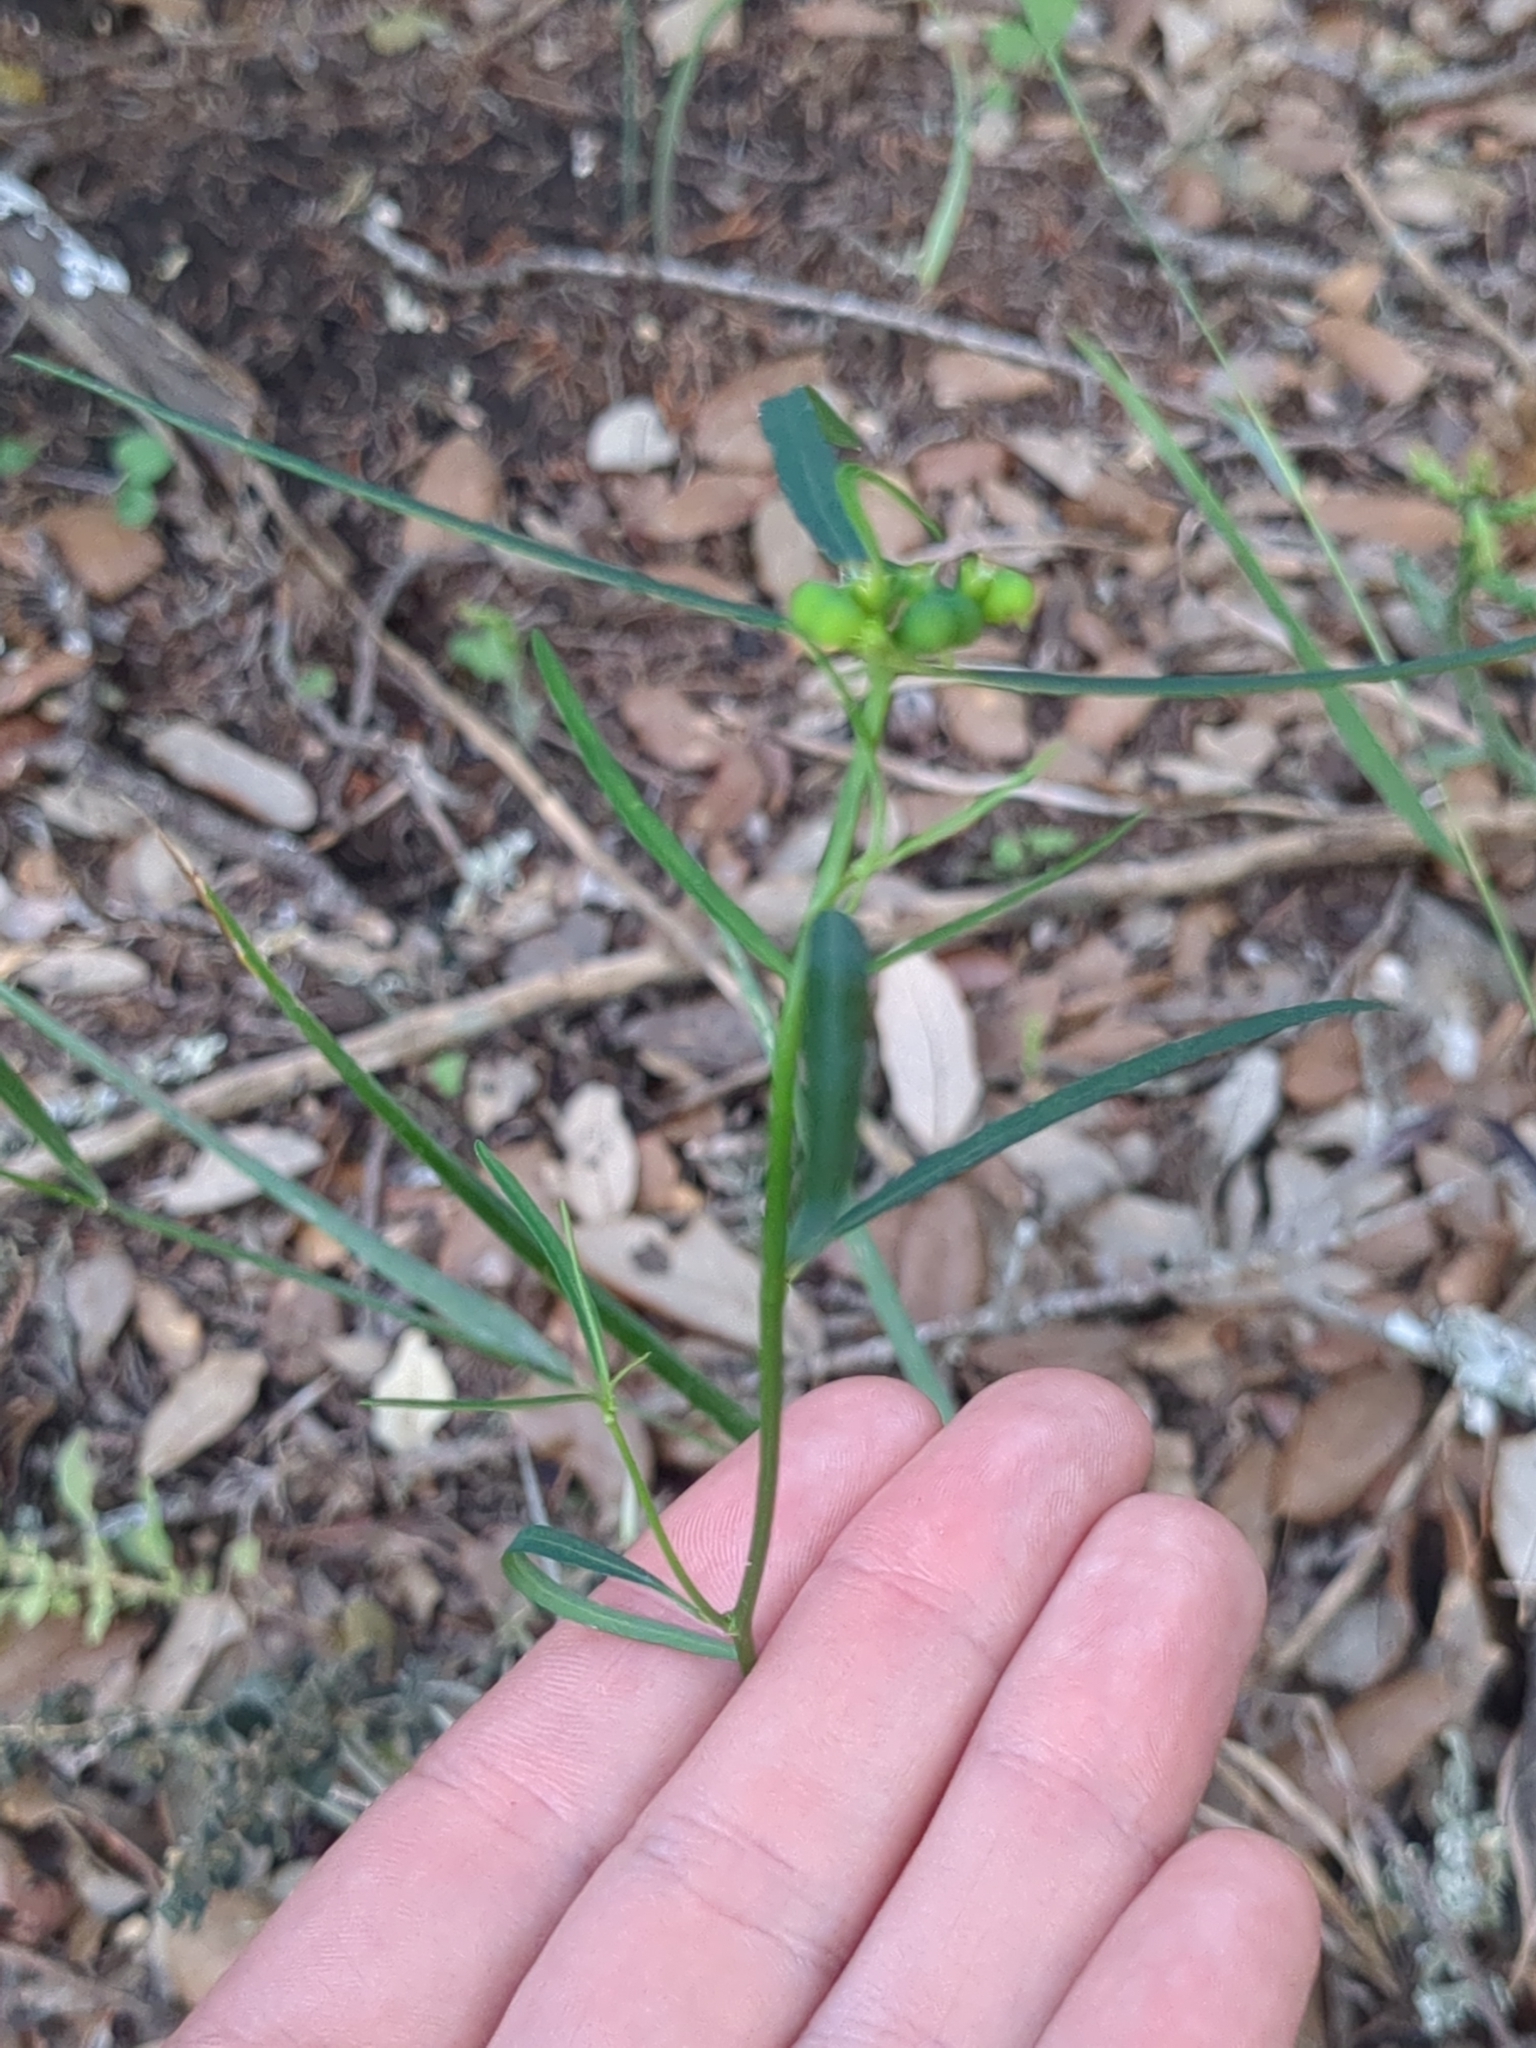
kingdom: Plantae
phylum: Tracheophyta
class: Magnoliopsida
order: Malpighiales
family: Euphorbiaceae
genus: Euphorbia
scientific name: Euphorbia heterophylla
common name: Mexican fireplant
